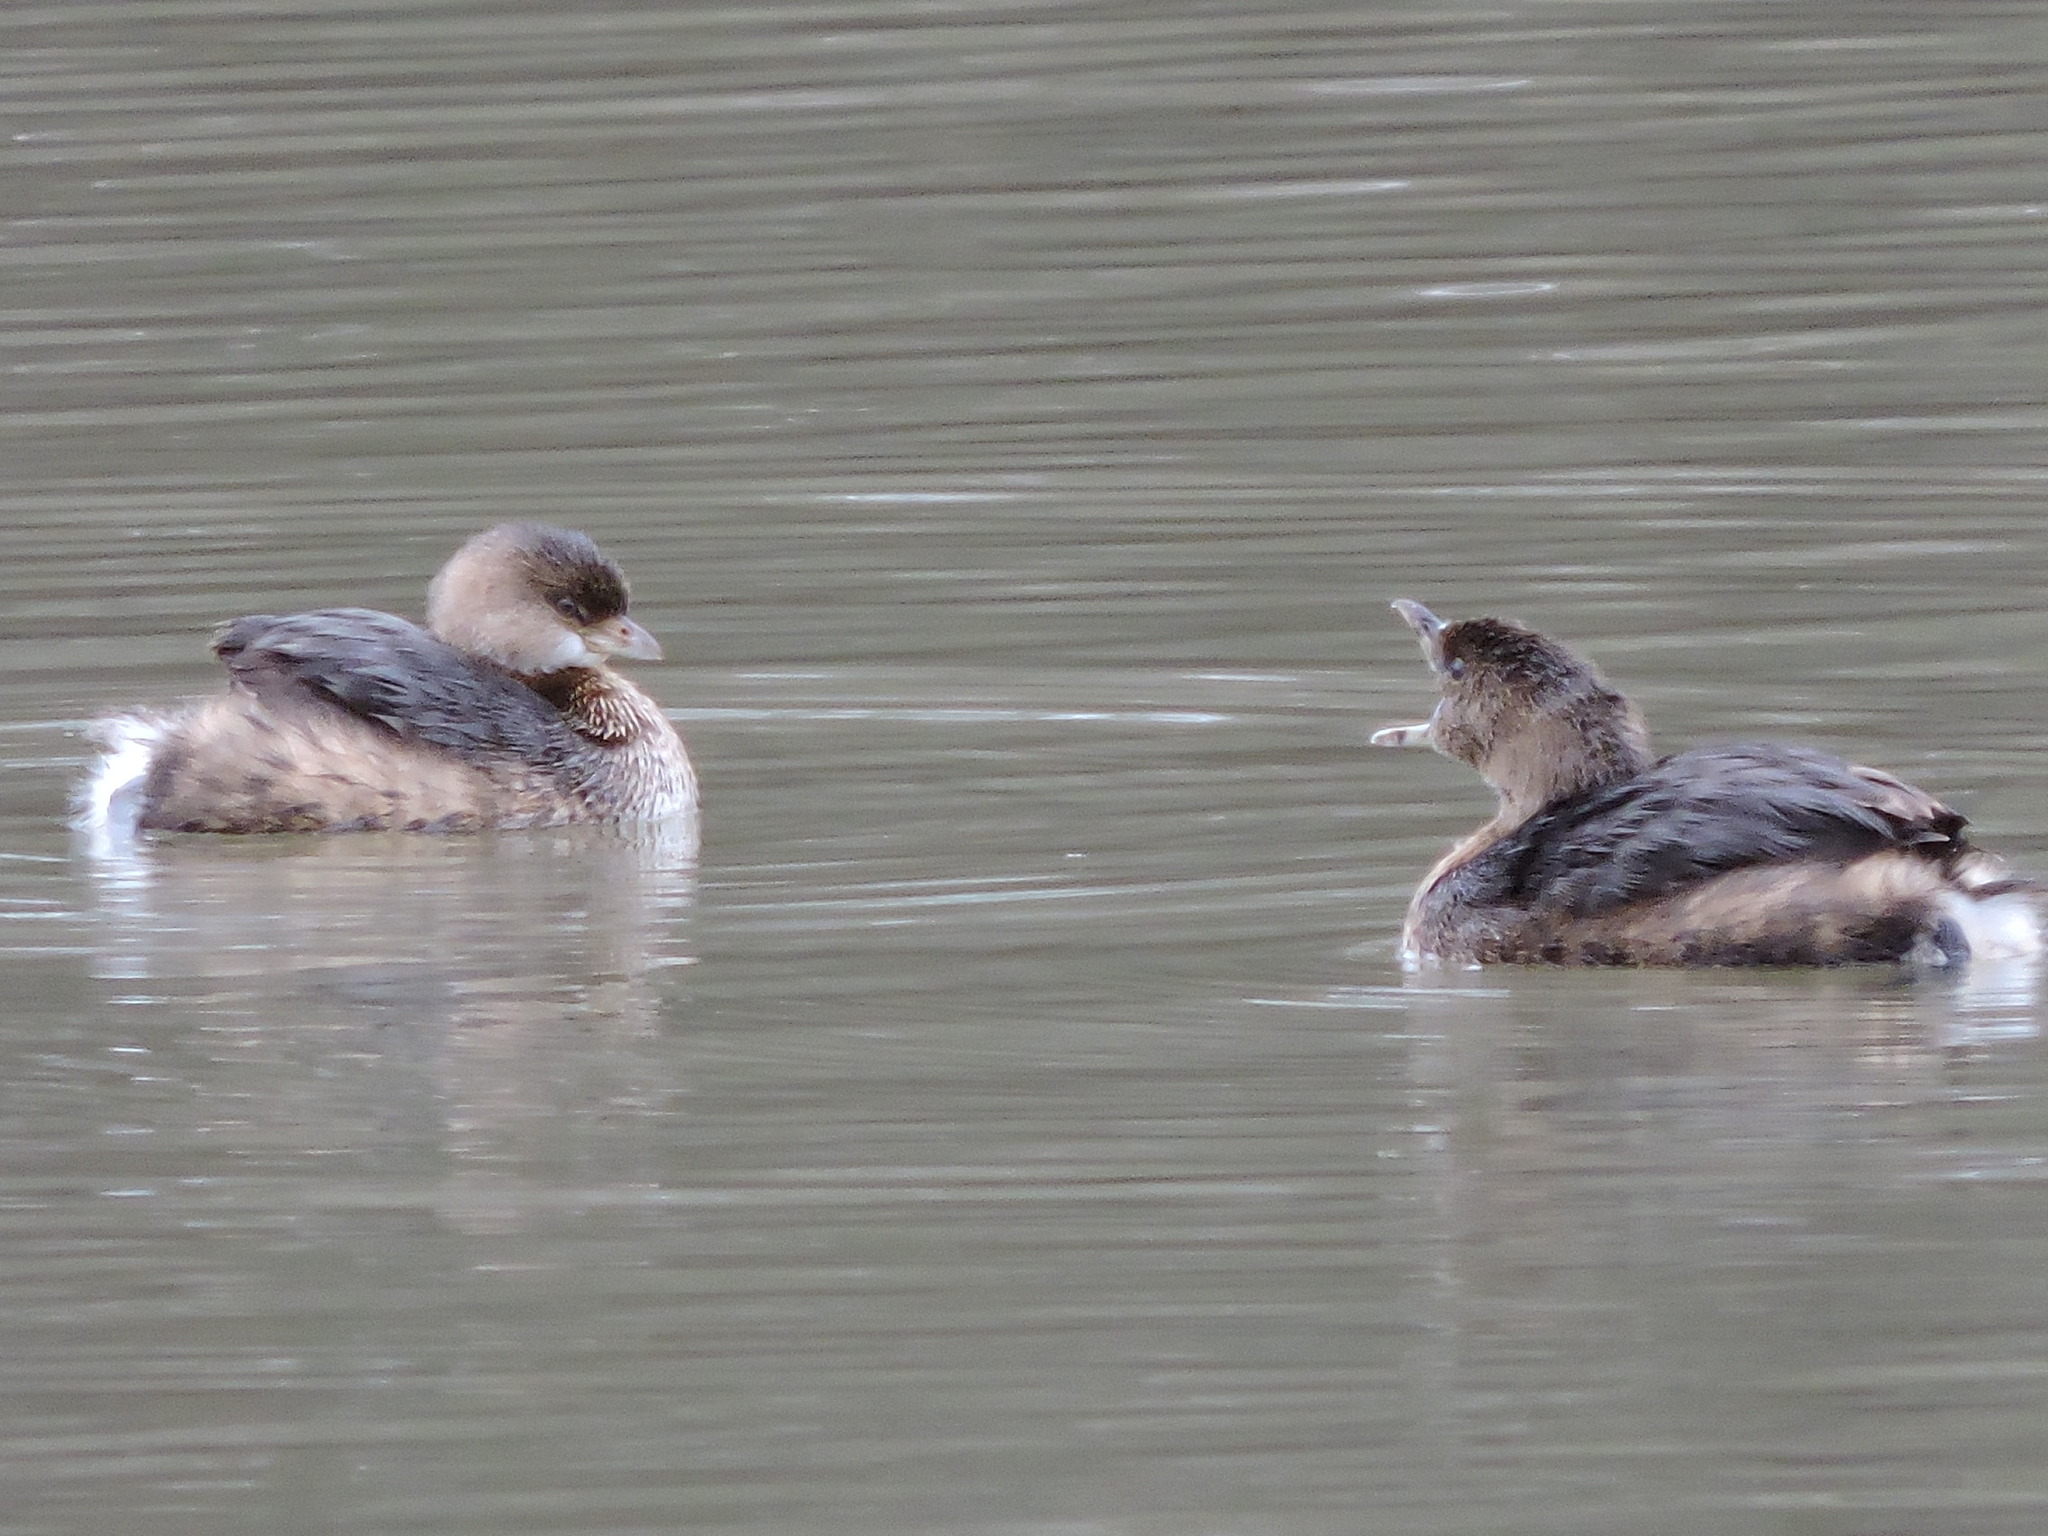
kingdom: Animalia
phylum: Chordata
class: Aves
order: Podicipediformes
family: Podicipedidae
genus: Podilymbus
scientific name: Podilymbus podiceps
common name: Pied-billed grebe
